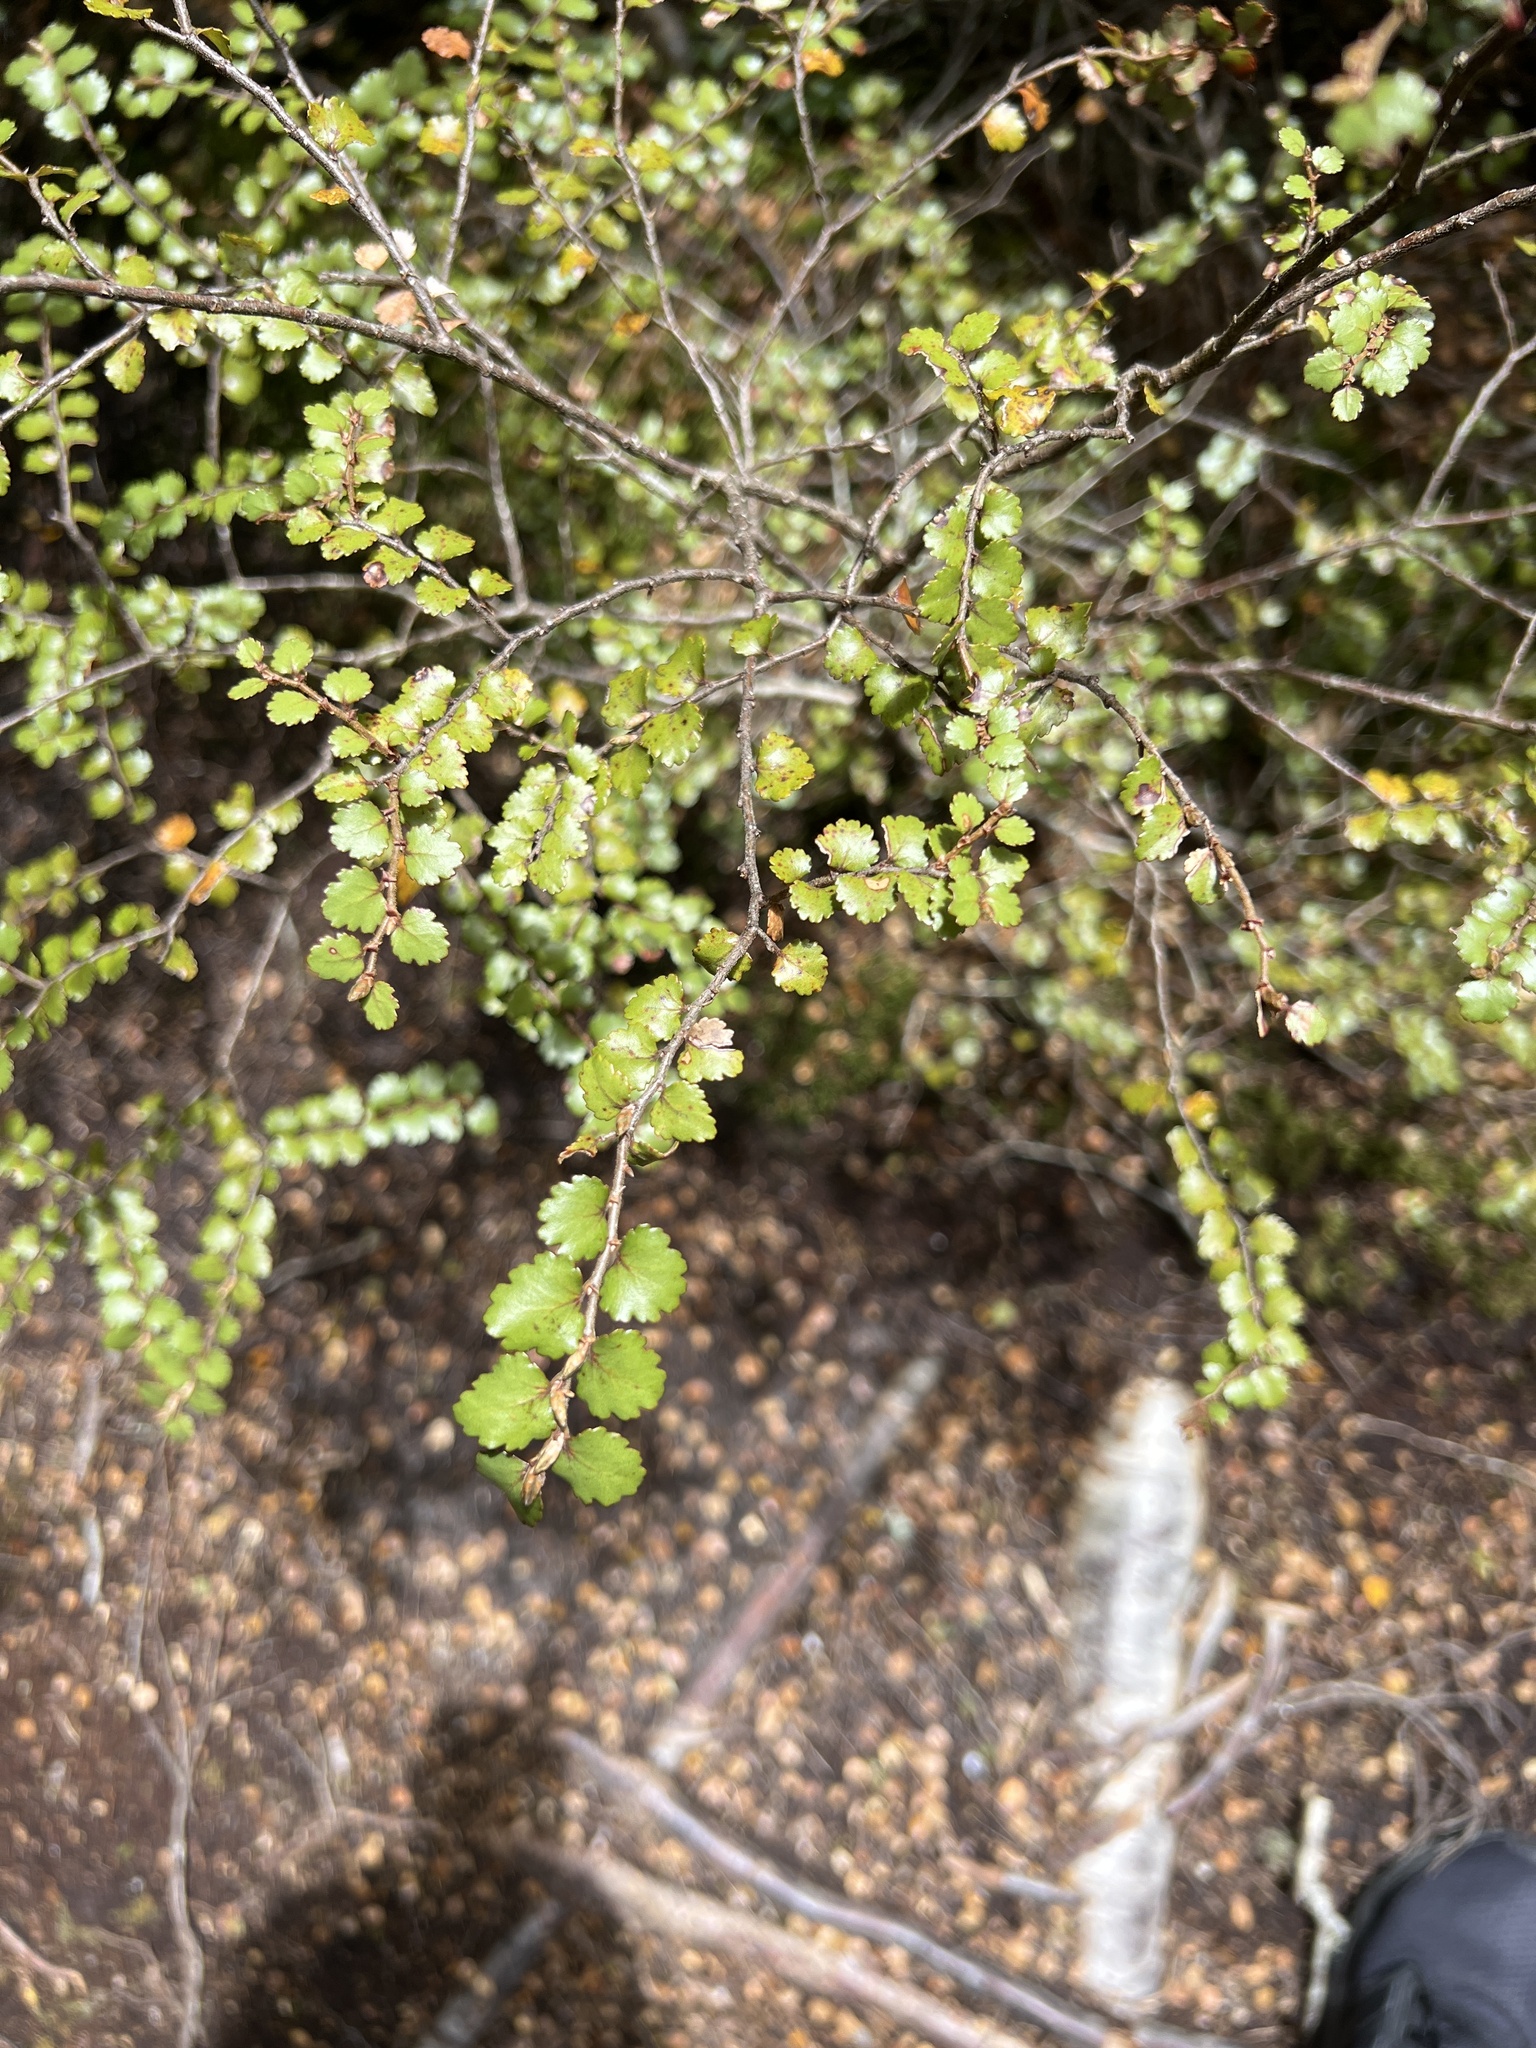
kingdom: Plantae
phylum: Tracheophyta
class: Magnoliopsida
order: Fagales
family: Nothofagaceae
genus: Nothofagus
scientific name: Nothofagus menziesii
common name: Silver beech
